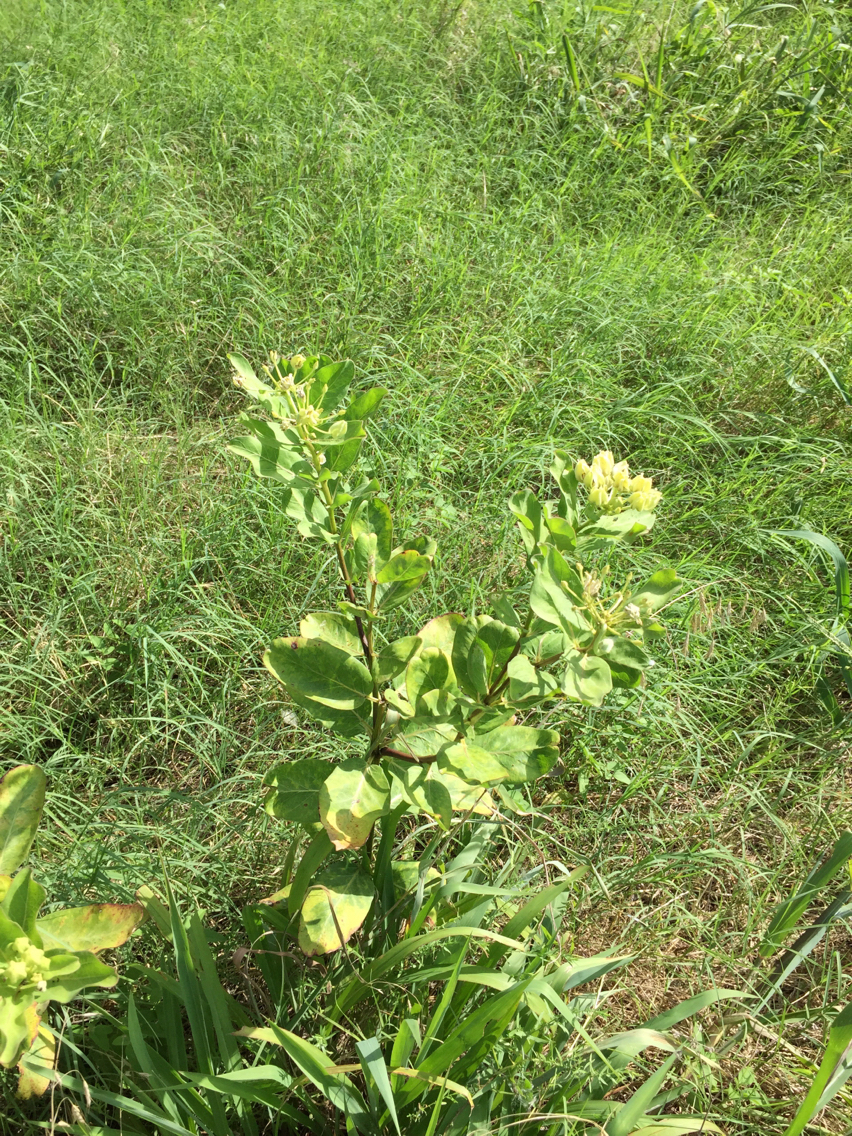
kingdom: Plantae
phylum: Tracheophyta
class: Magnoliopsida
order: Gentianales
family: Apocynaceae
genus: Asclepias
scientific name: Asclepias viridis
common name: Antelope-horns
